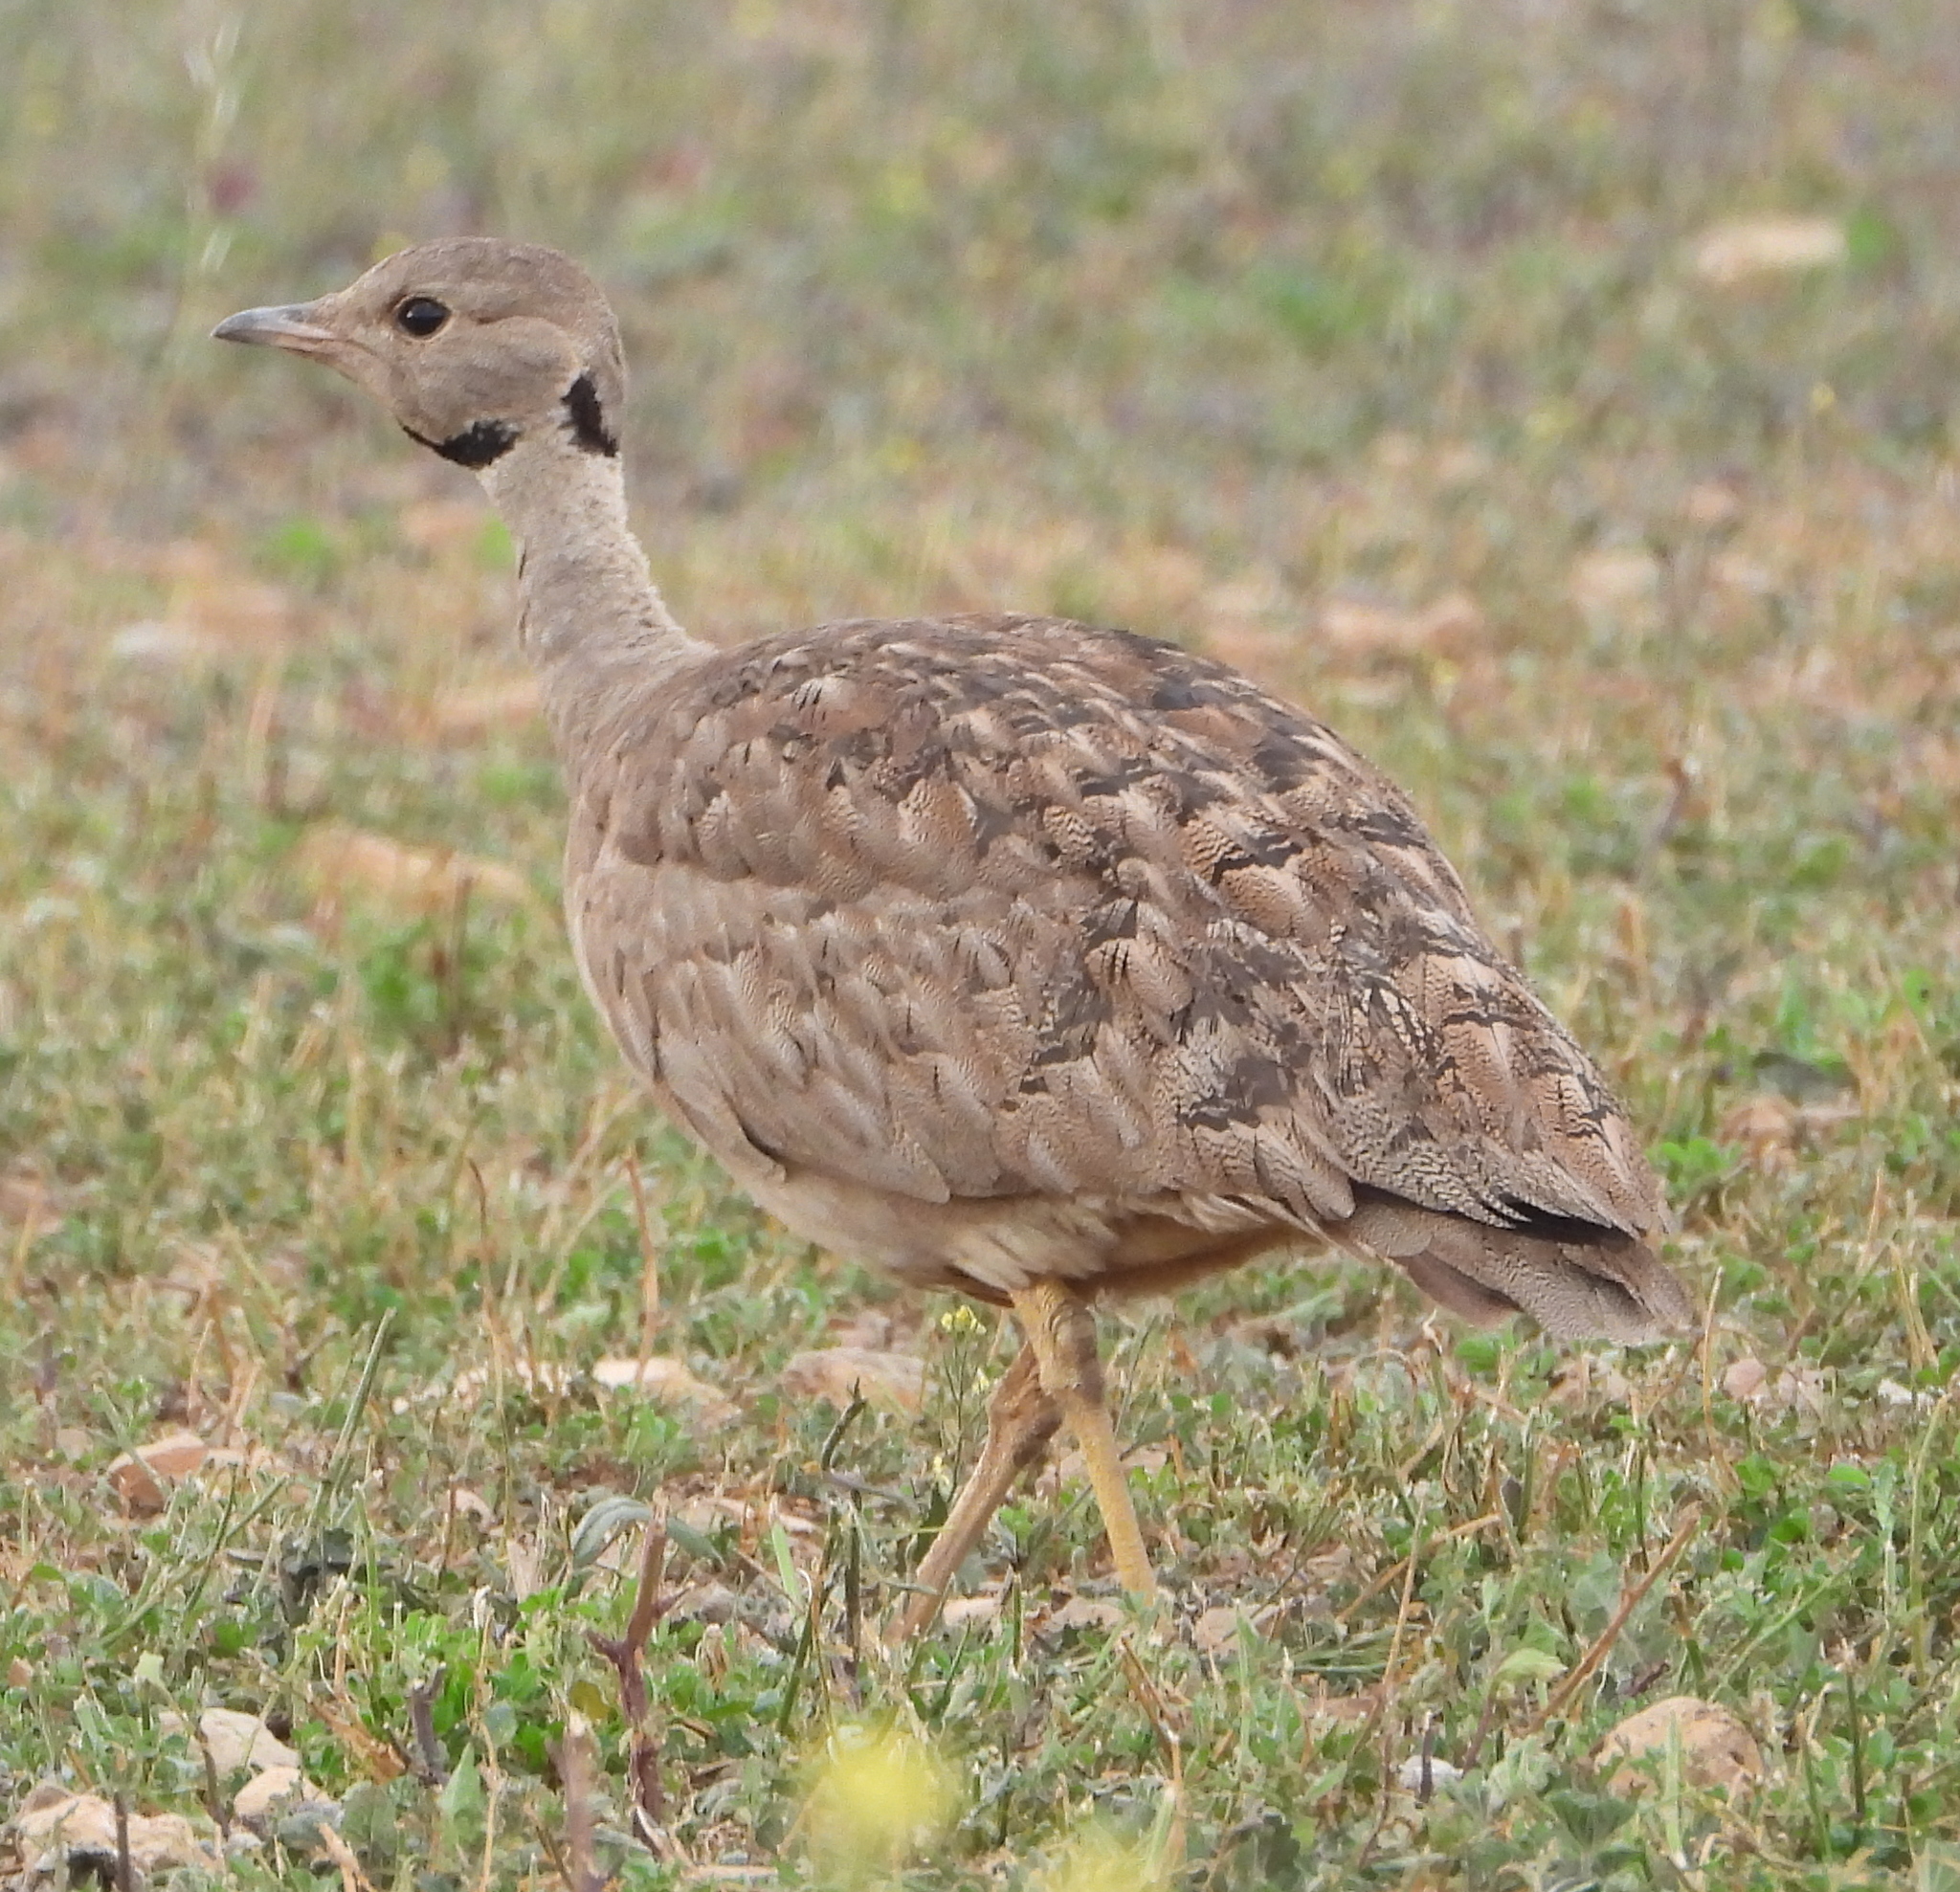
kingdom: Animalia
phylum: Chordata
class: Aves
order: Otidiformes
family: Otididae
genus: Eupodotis
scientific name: Eupodotis vigorsii
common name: Karoo korhaan
